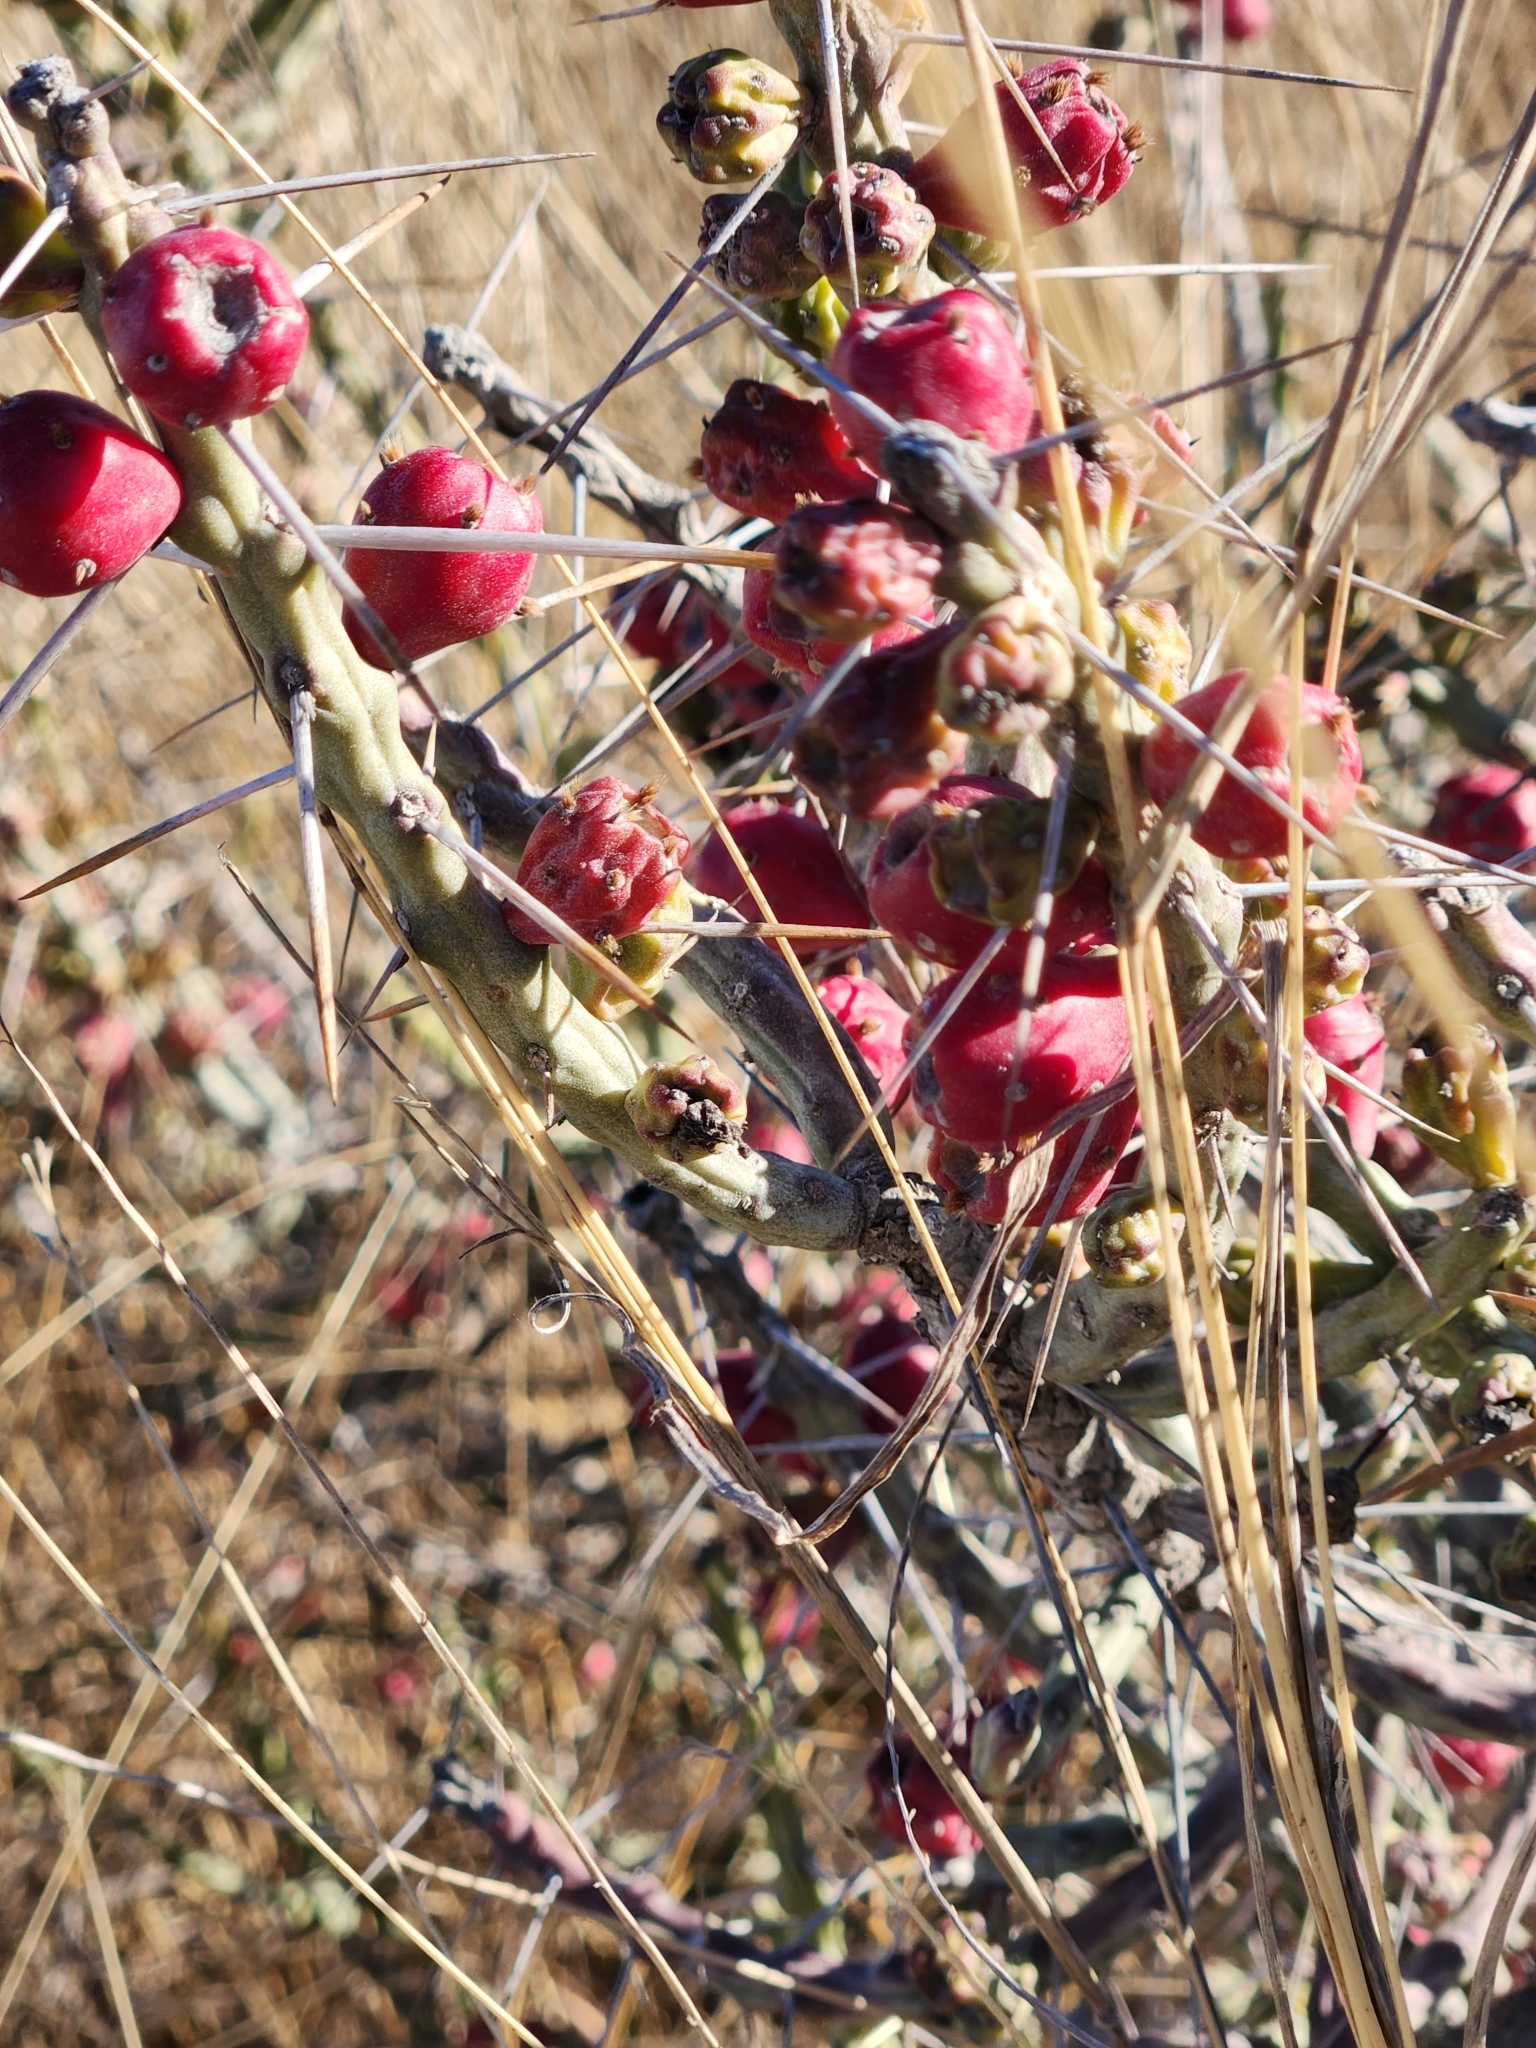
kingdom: Plantae
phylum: Tracheophyta
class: Magnoliopsida
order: Caryophyllales
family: Cactaceae
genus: Cylindropuntia
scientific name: Cylindropuntia leptocaulis
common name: Christmas cactus
